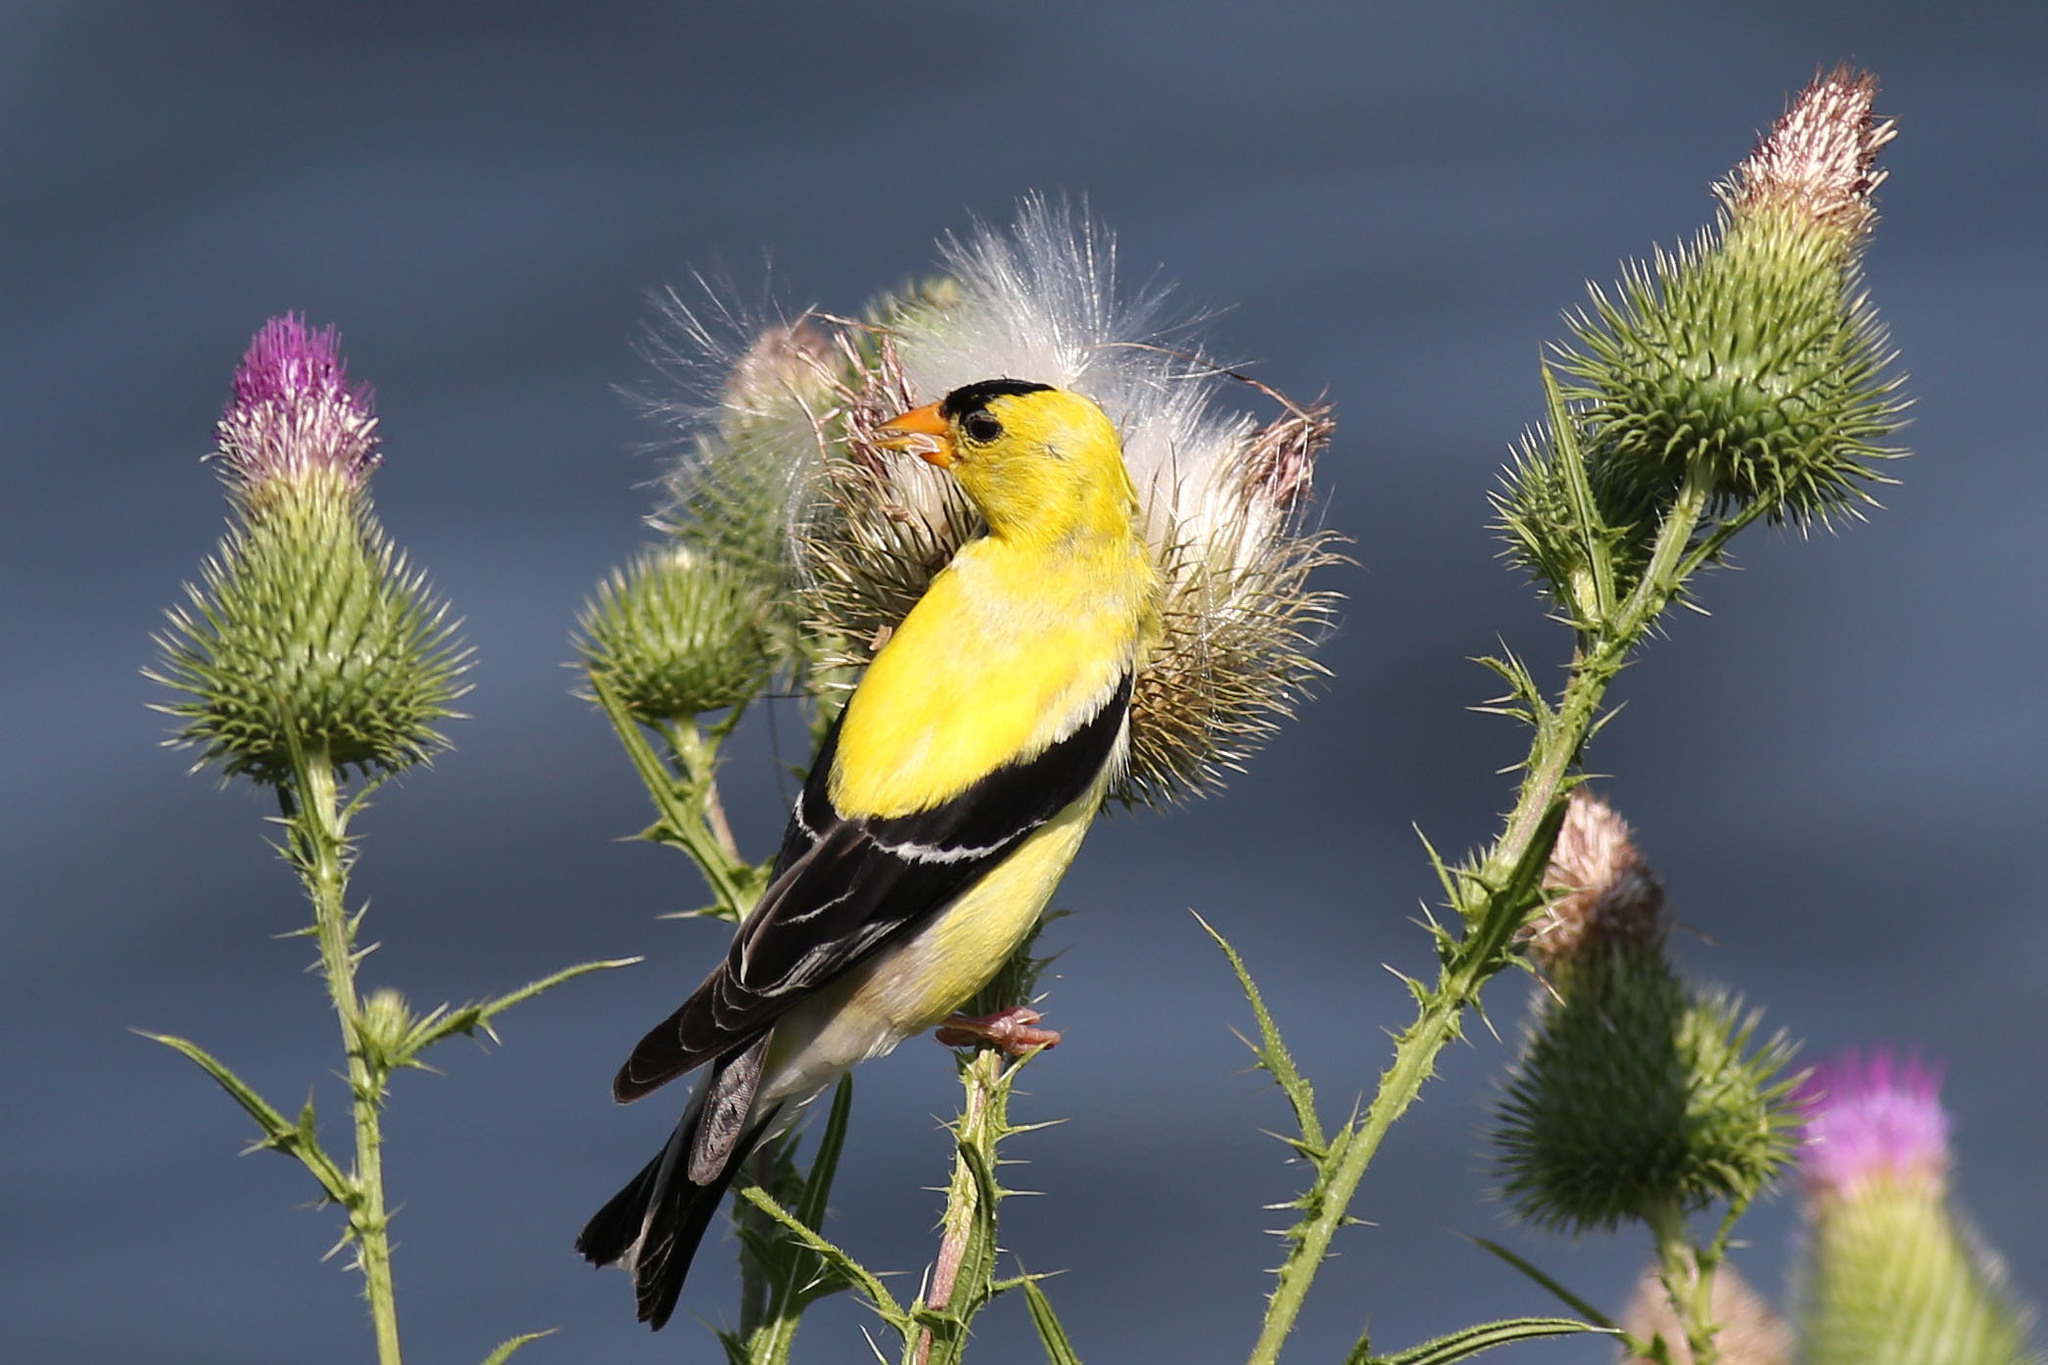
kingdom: Animalia
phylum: Chordata
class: Aves
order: Passeriformes
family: Fringillidae
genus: Spinus
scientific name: Spinus tristis
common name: American goldfinch
